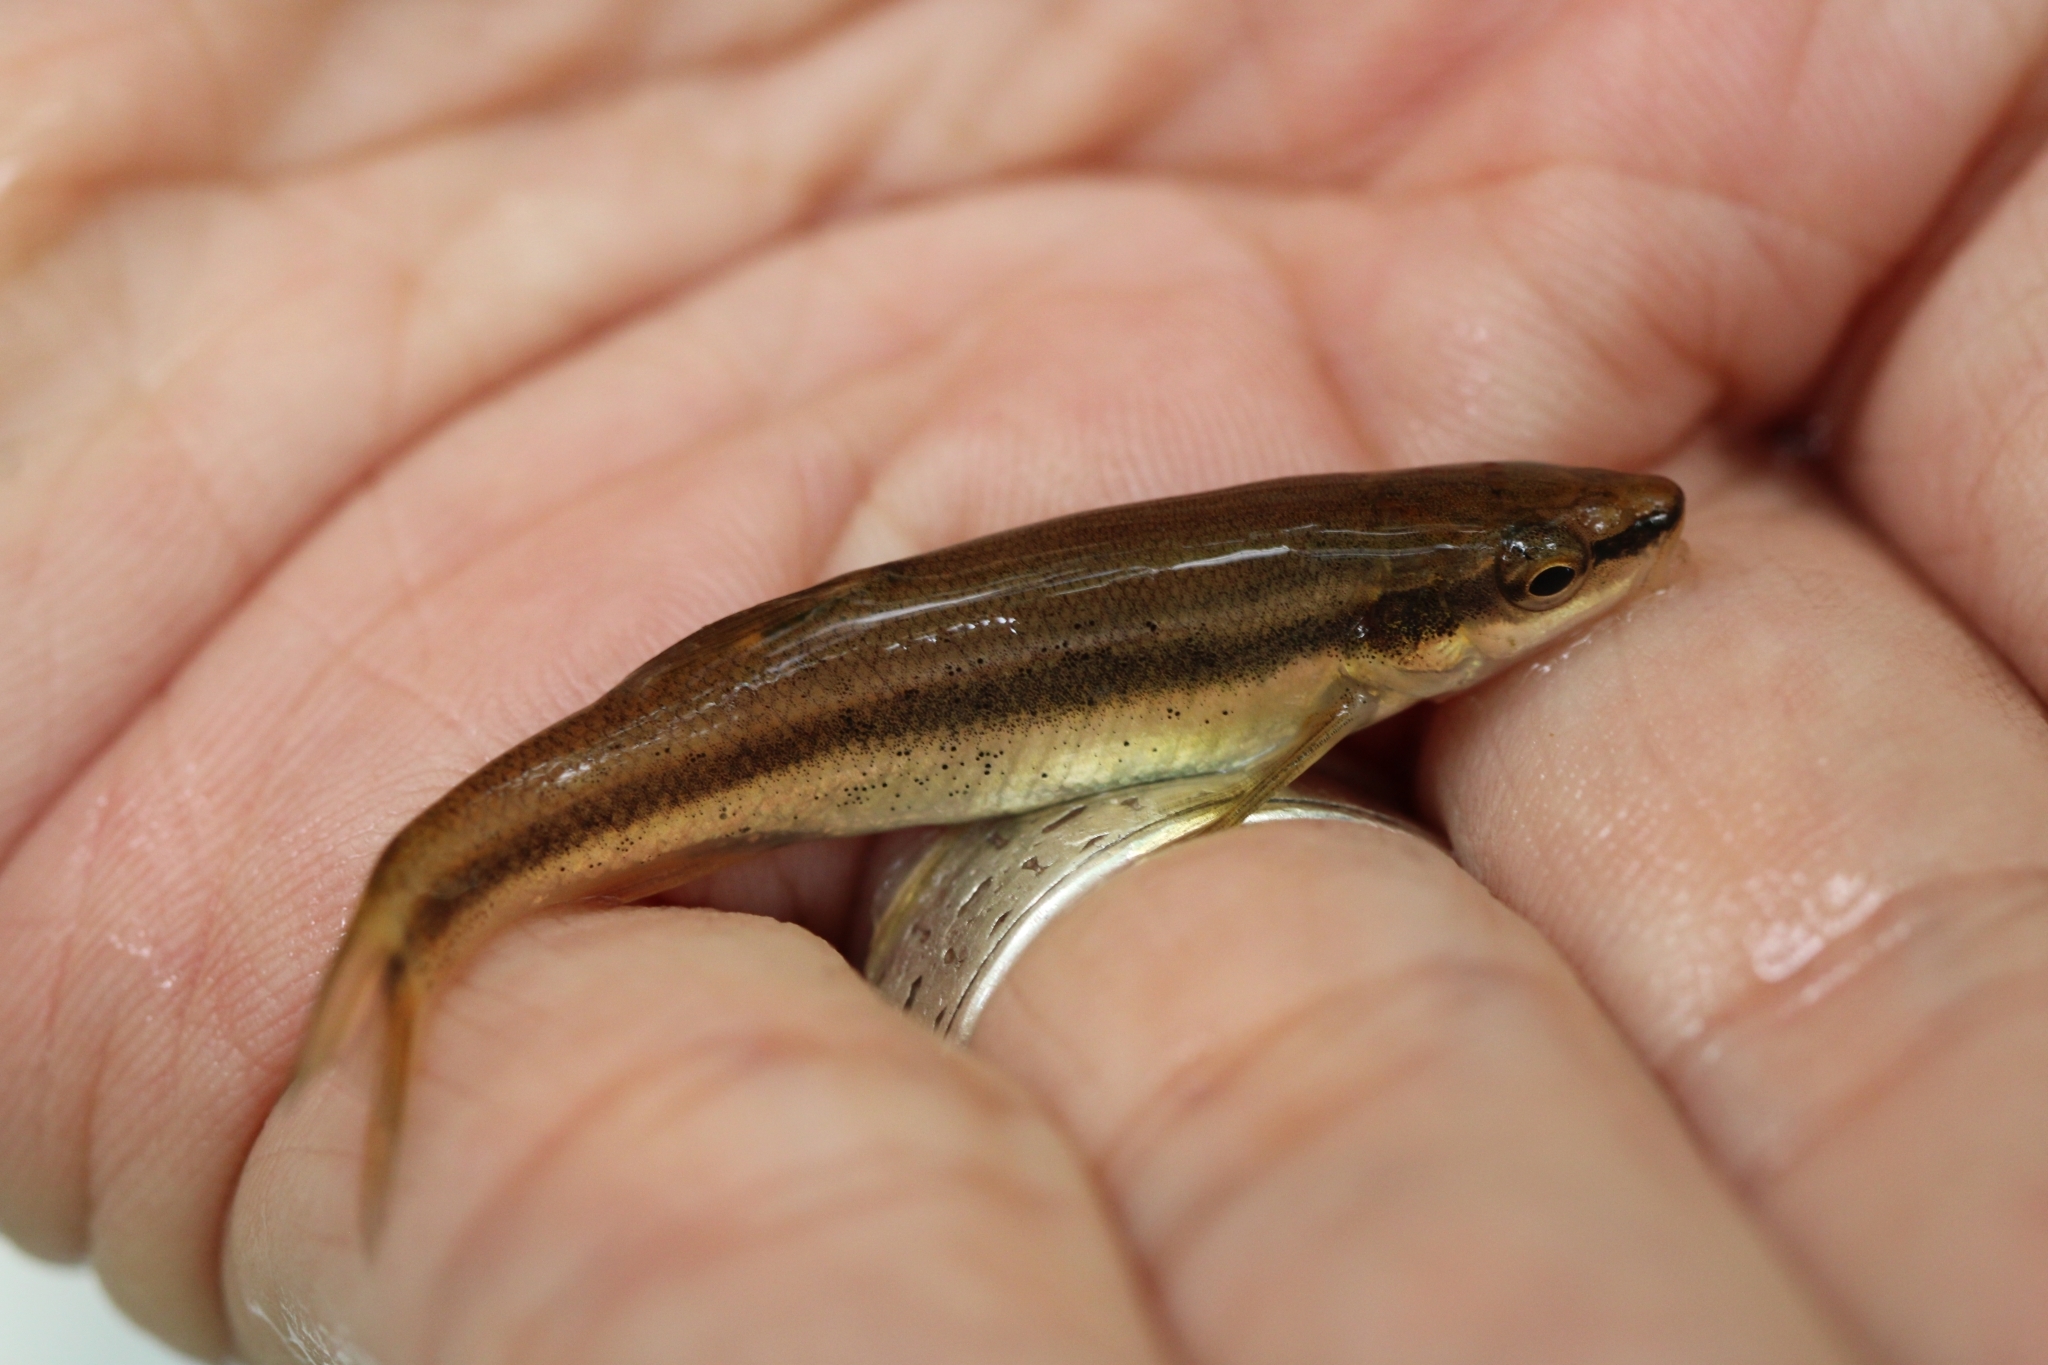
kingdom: Animalia
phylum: Chordata
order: Cypriniformes
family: Cyprinidae
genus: Rhinichthys
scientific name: Rhinichthys atratulus
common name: Eastern blacknose dace
